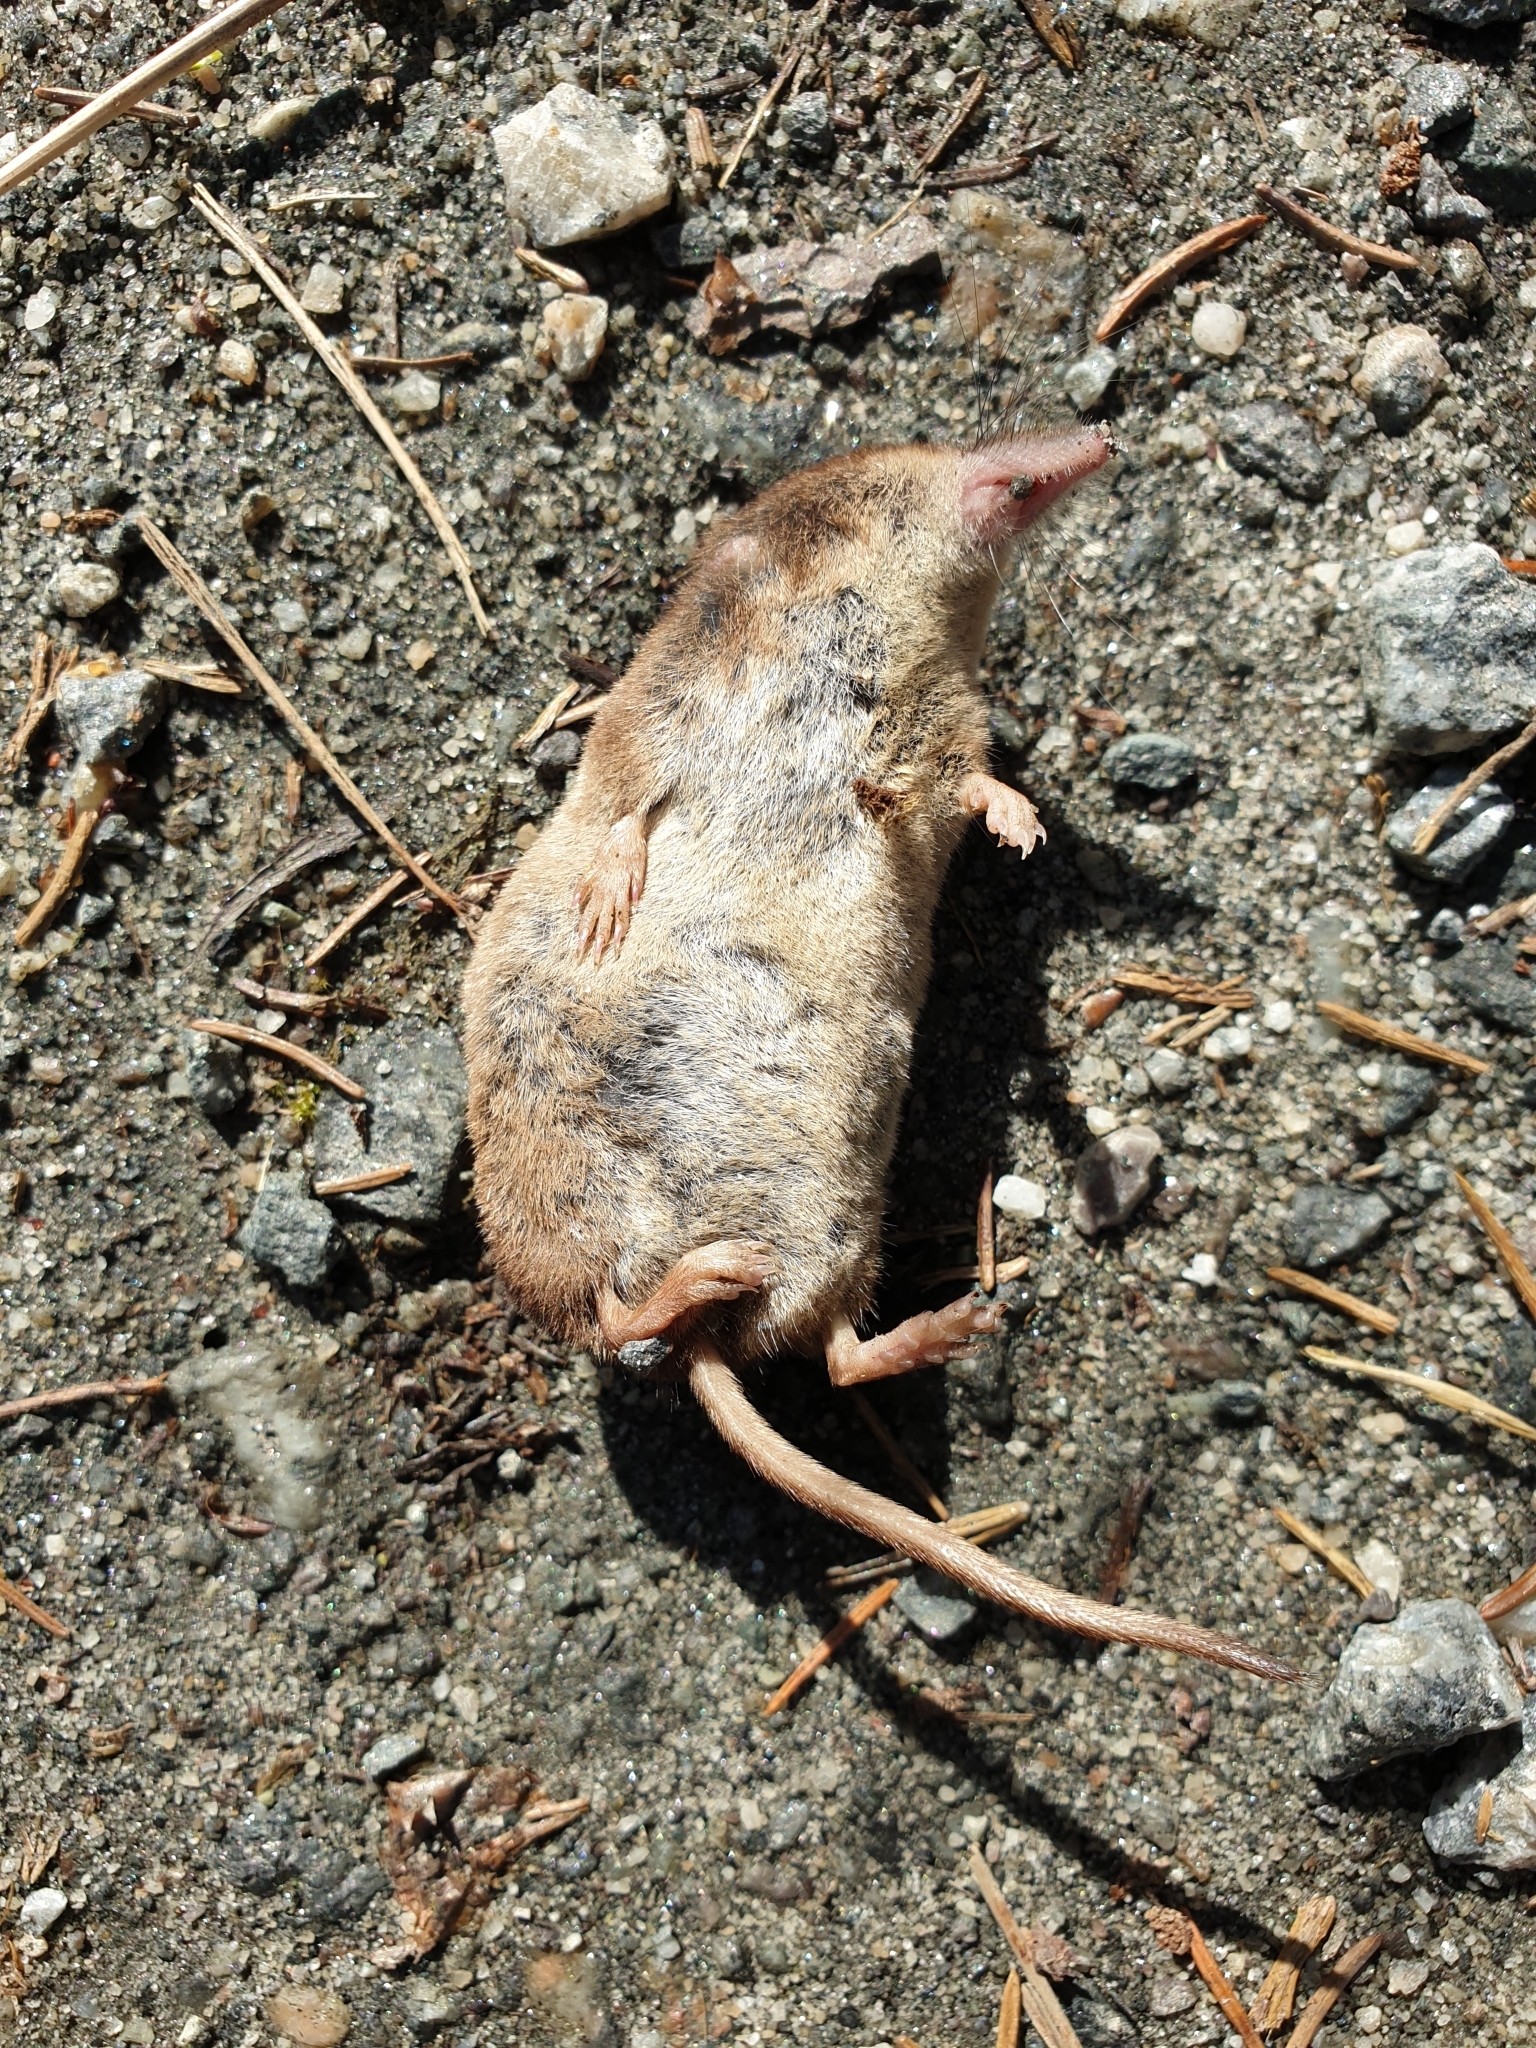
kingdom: Animalia
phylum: Chordata
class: Mammalia
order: Soricomorpha
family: Soricidae
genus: Sorex
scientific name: Sorex araneus
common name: Common shrew
